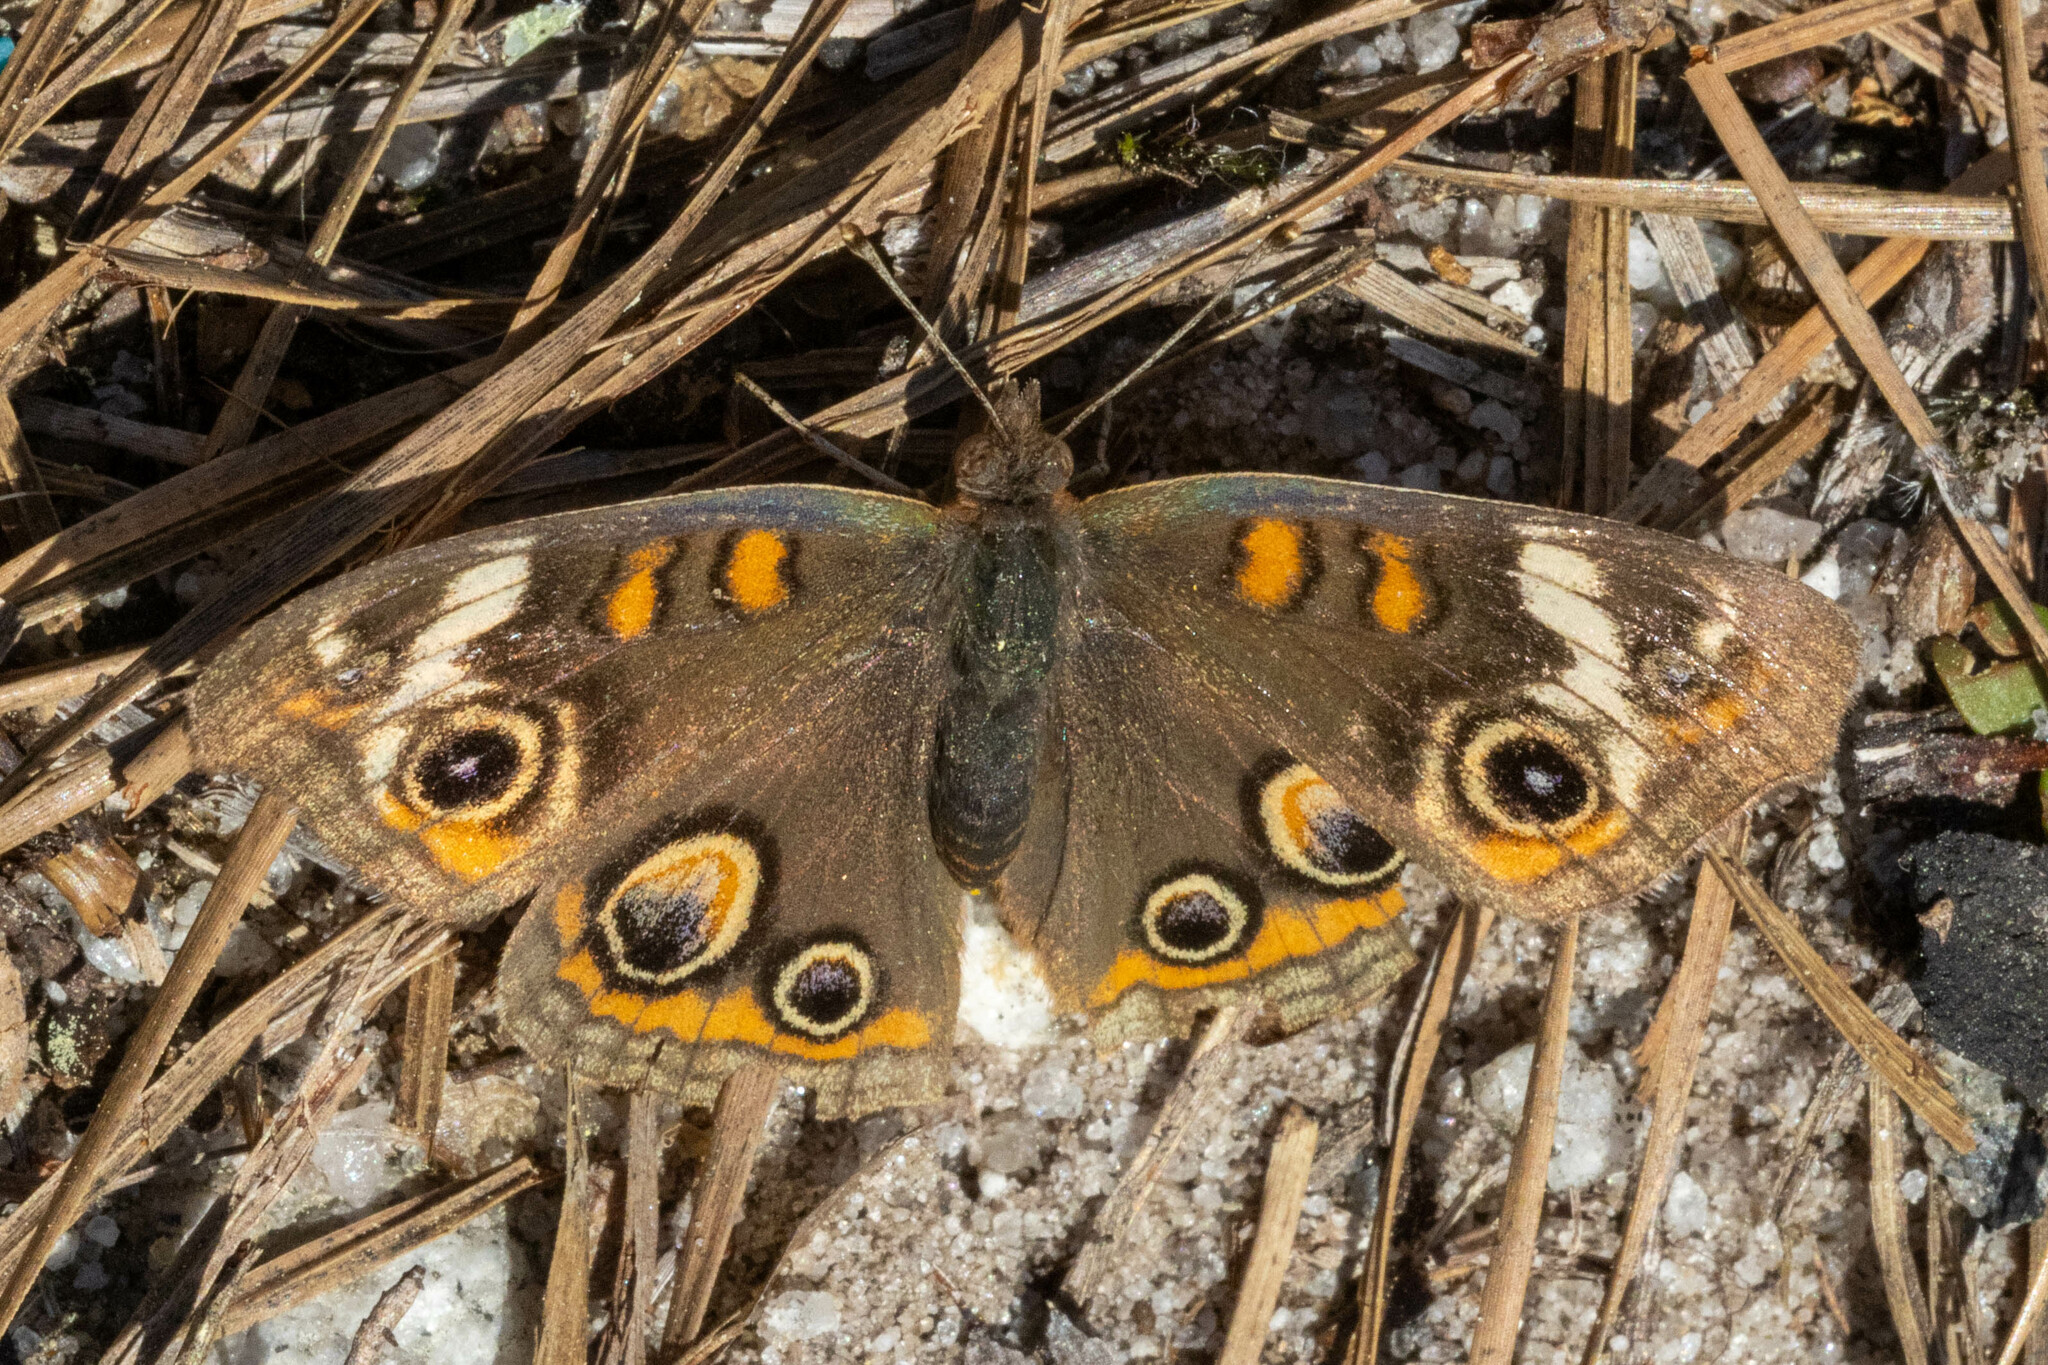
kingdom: Animalia
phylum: Arthropoda
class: Insecta
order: Lepidoptera
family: Nymphalidae
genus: Junonia
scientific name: Junonia coenia
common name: Common buckeye
